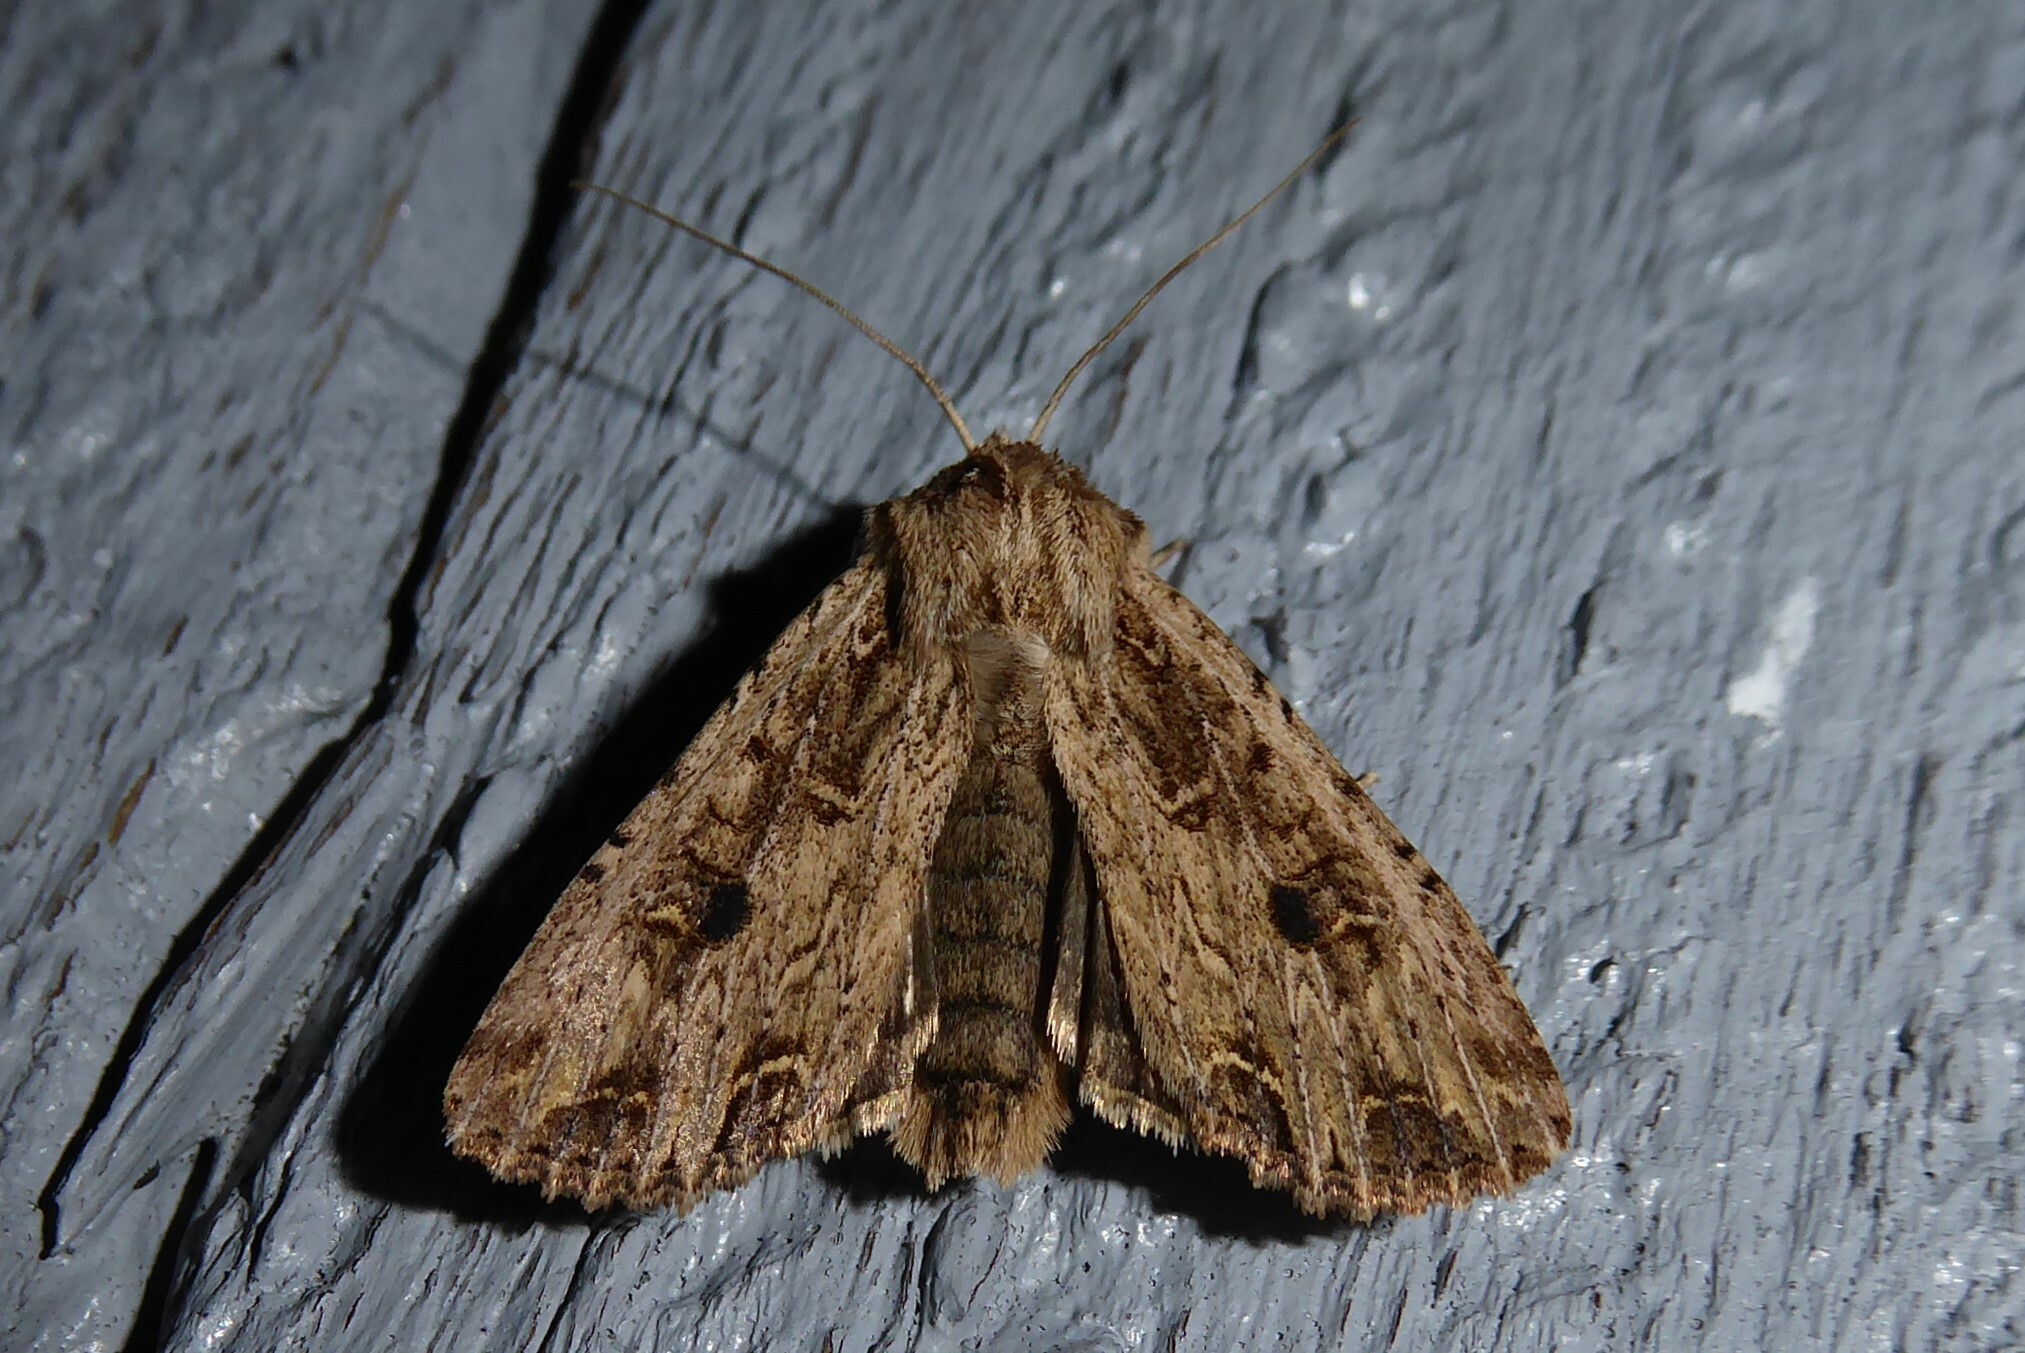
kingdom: Animalia
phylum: Arthropoda
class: Insecta
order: Lepidoptera
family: Noctuidae
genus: Ichneutica
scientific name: Ichneutica lignana
